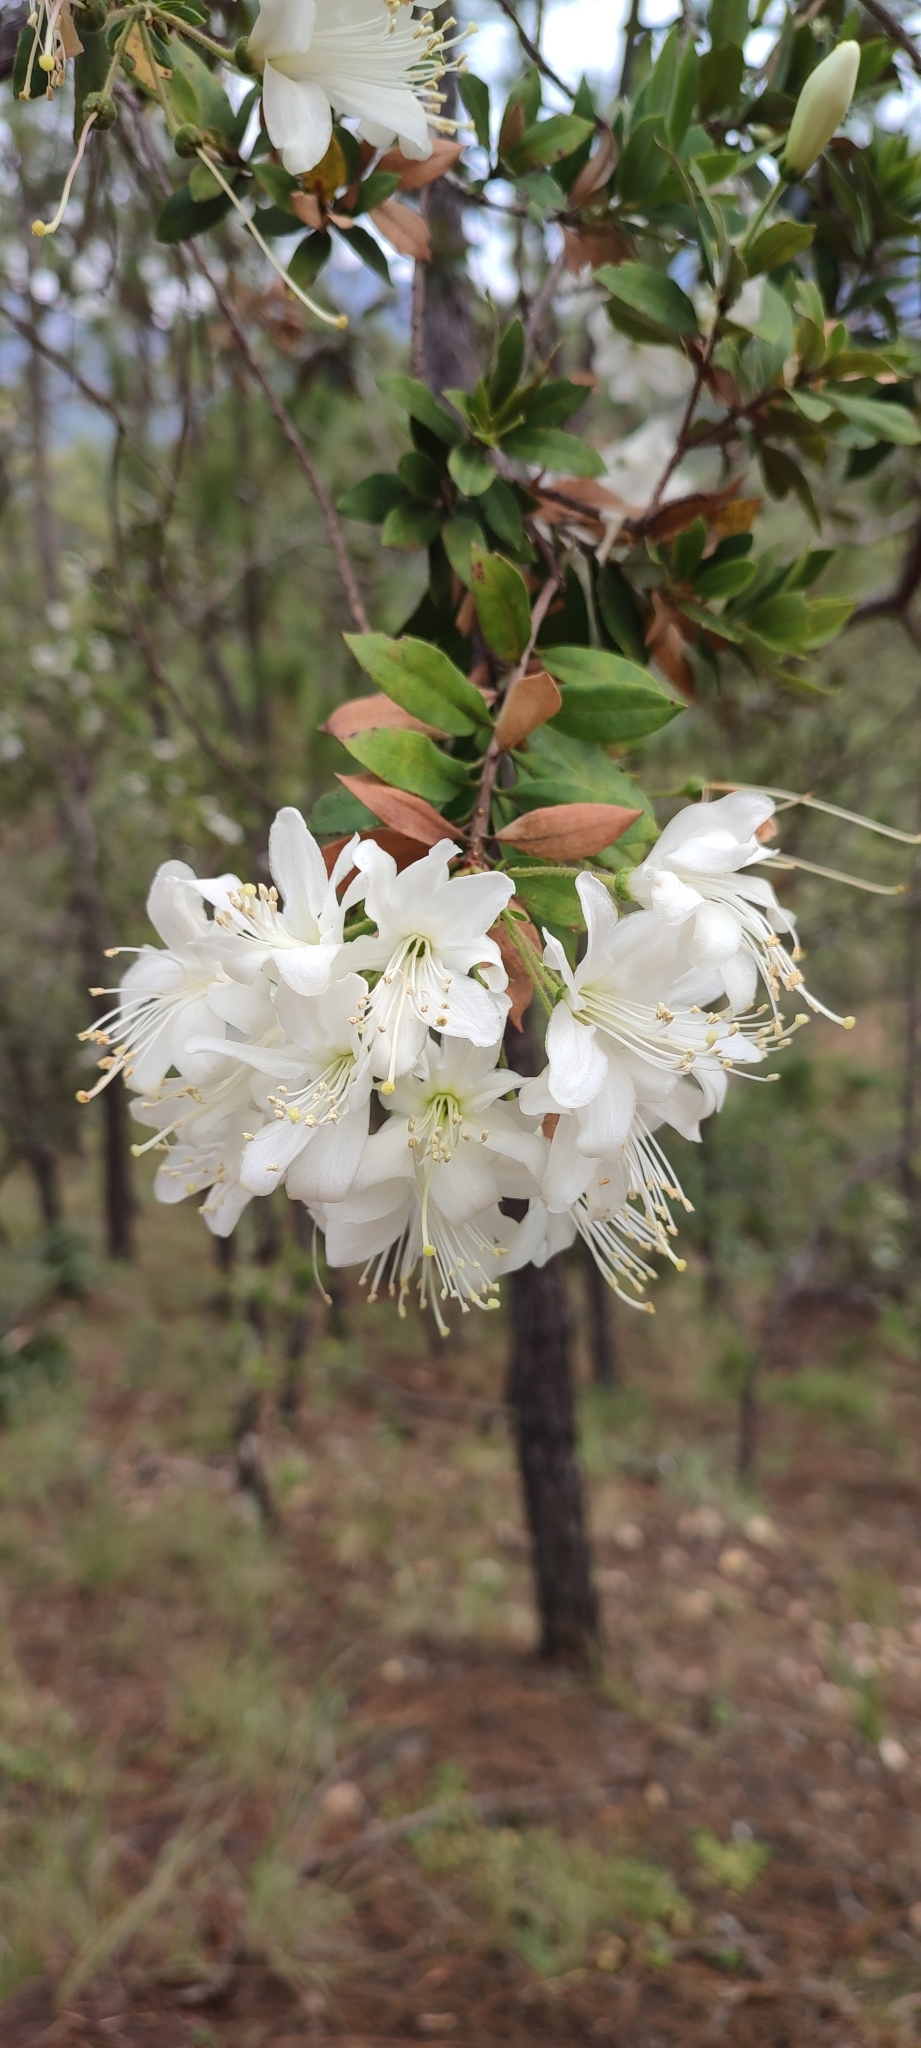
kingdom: Plantae
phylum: Tracheophyta
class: Magnoliopsida
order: Ericales
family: Ericaceae
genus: Bejaria
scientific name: Bejaria aestuans
